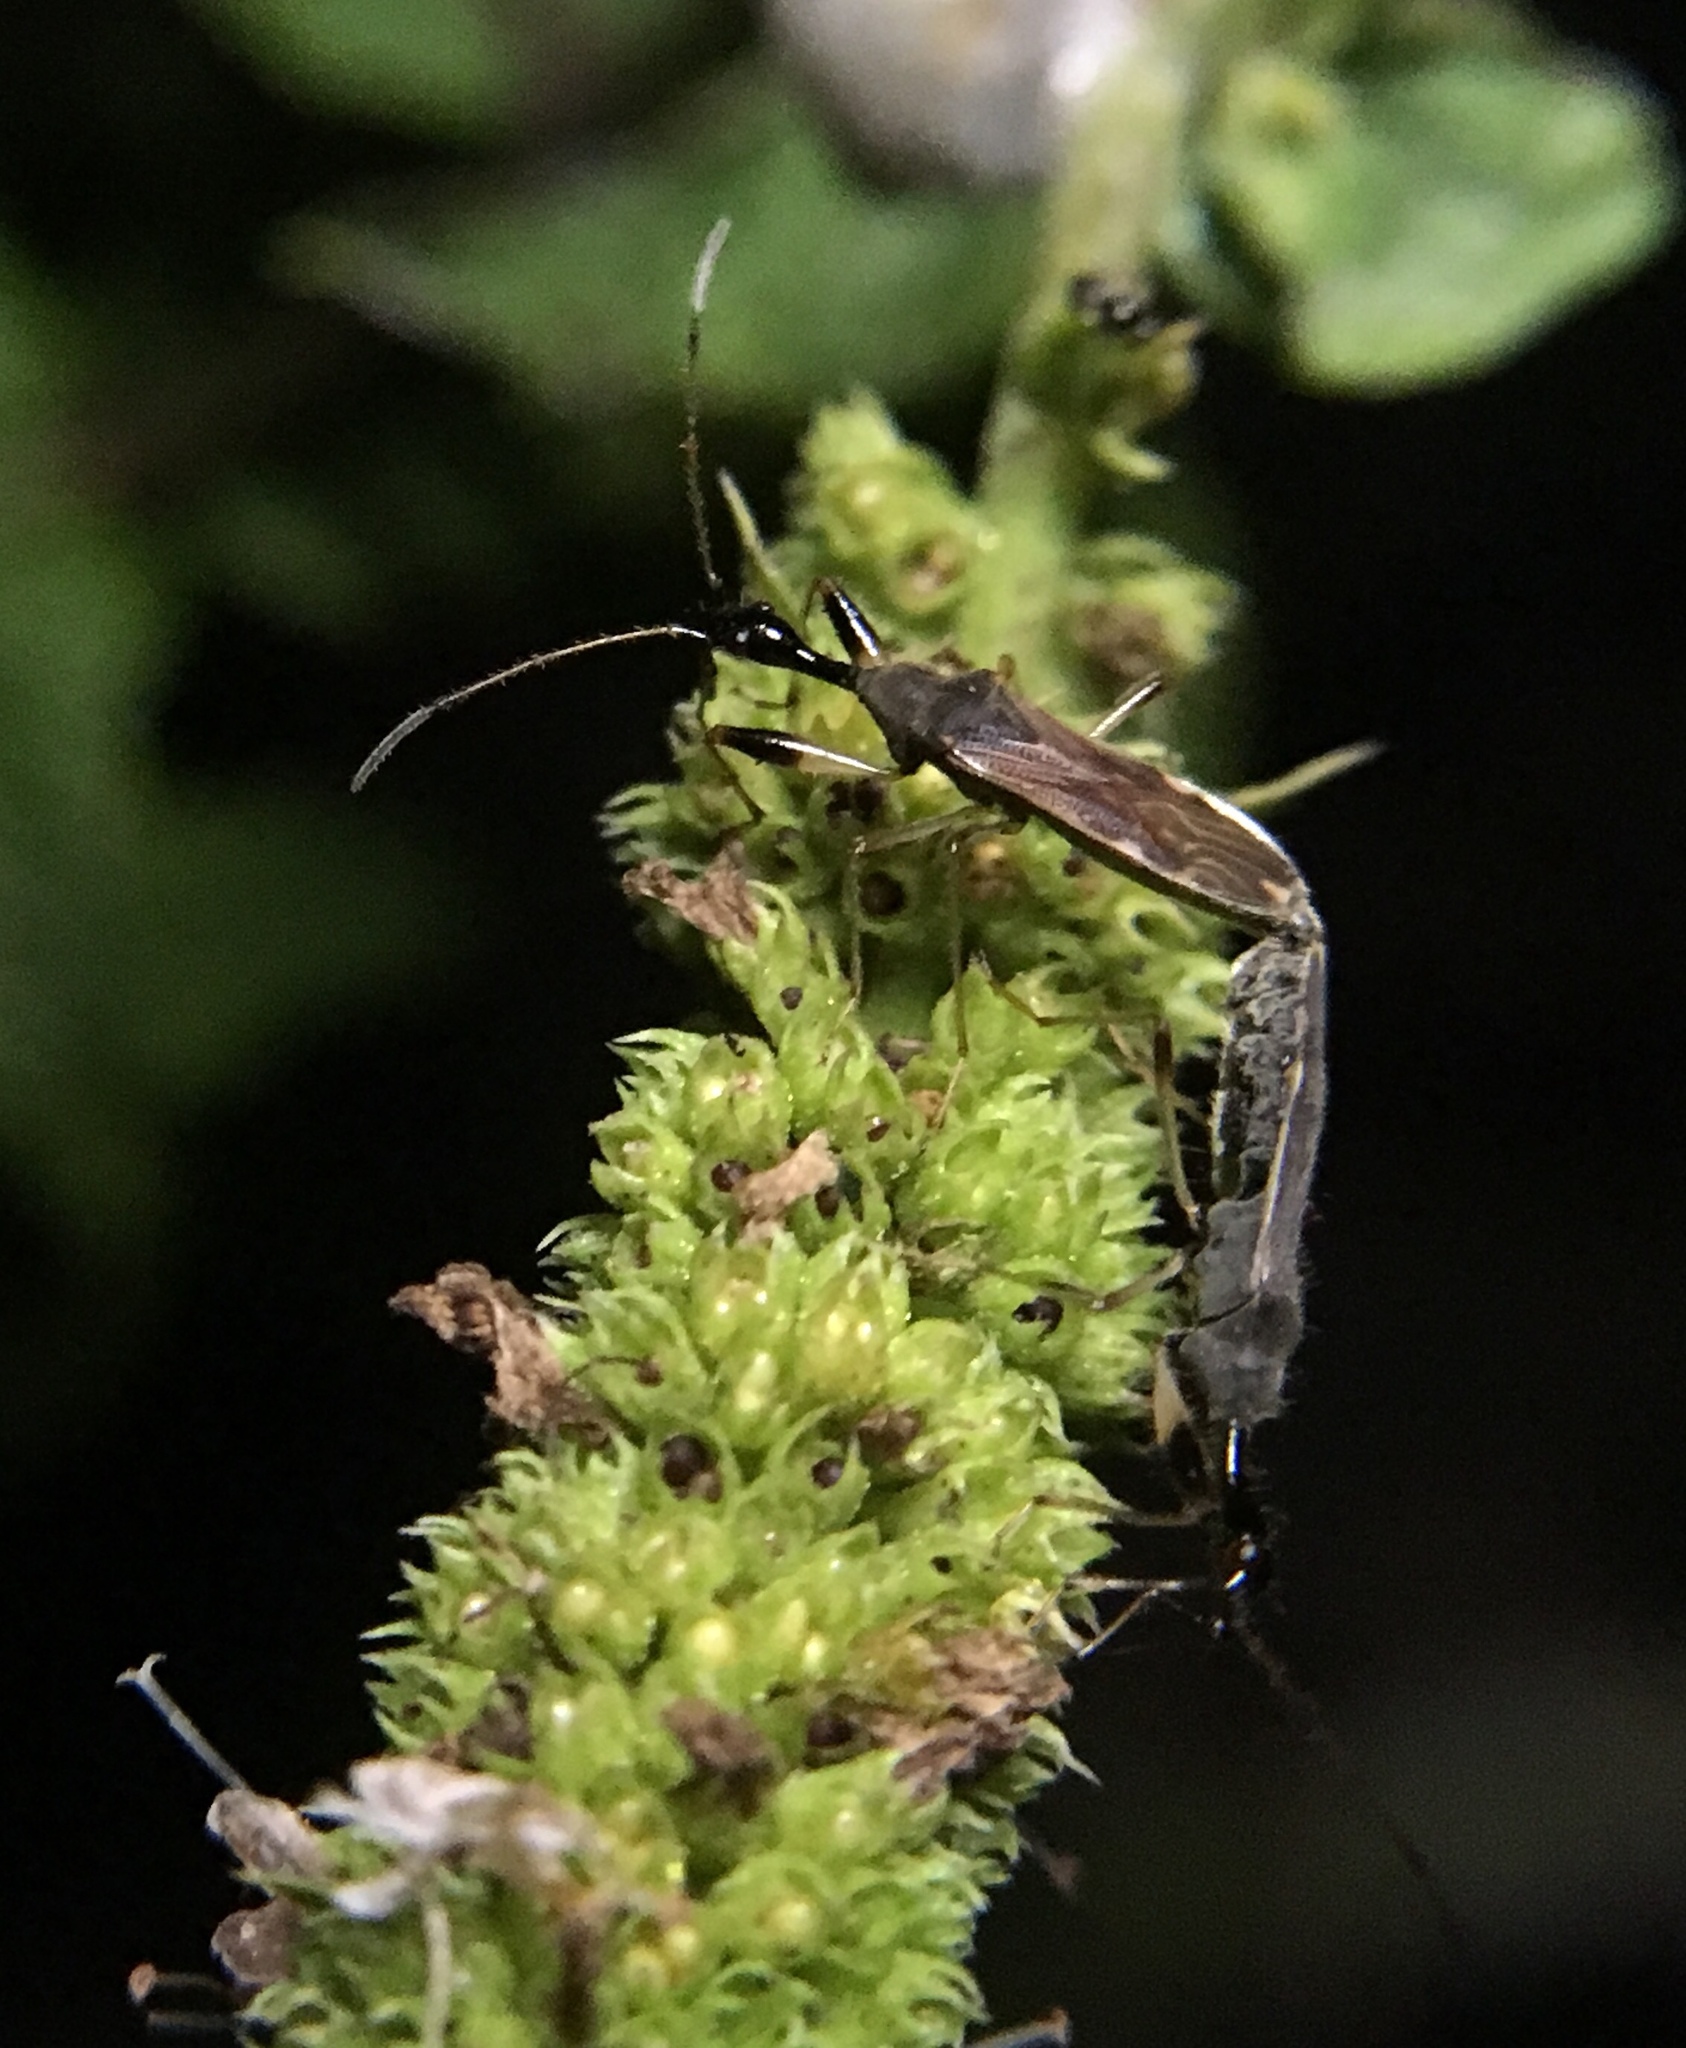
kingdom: Animalia
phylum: Arthropoda
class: Insecta
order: Hemiptera
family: Rhyparochromidae
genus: Myodocha
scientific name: Myodocha serripes
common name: Long-necked seed bug
